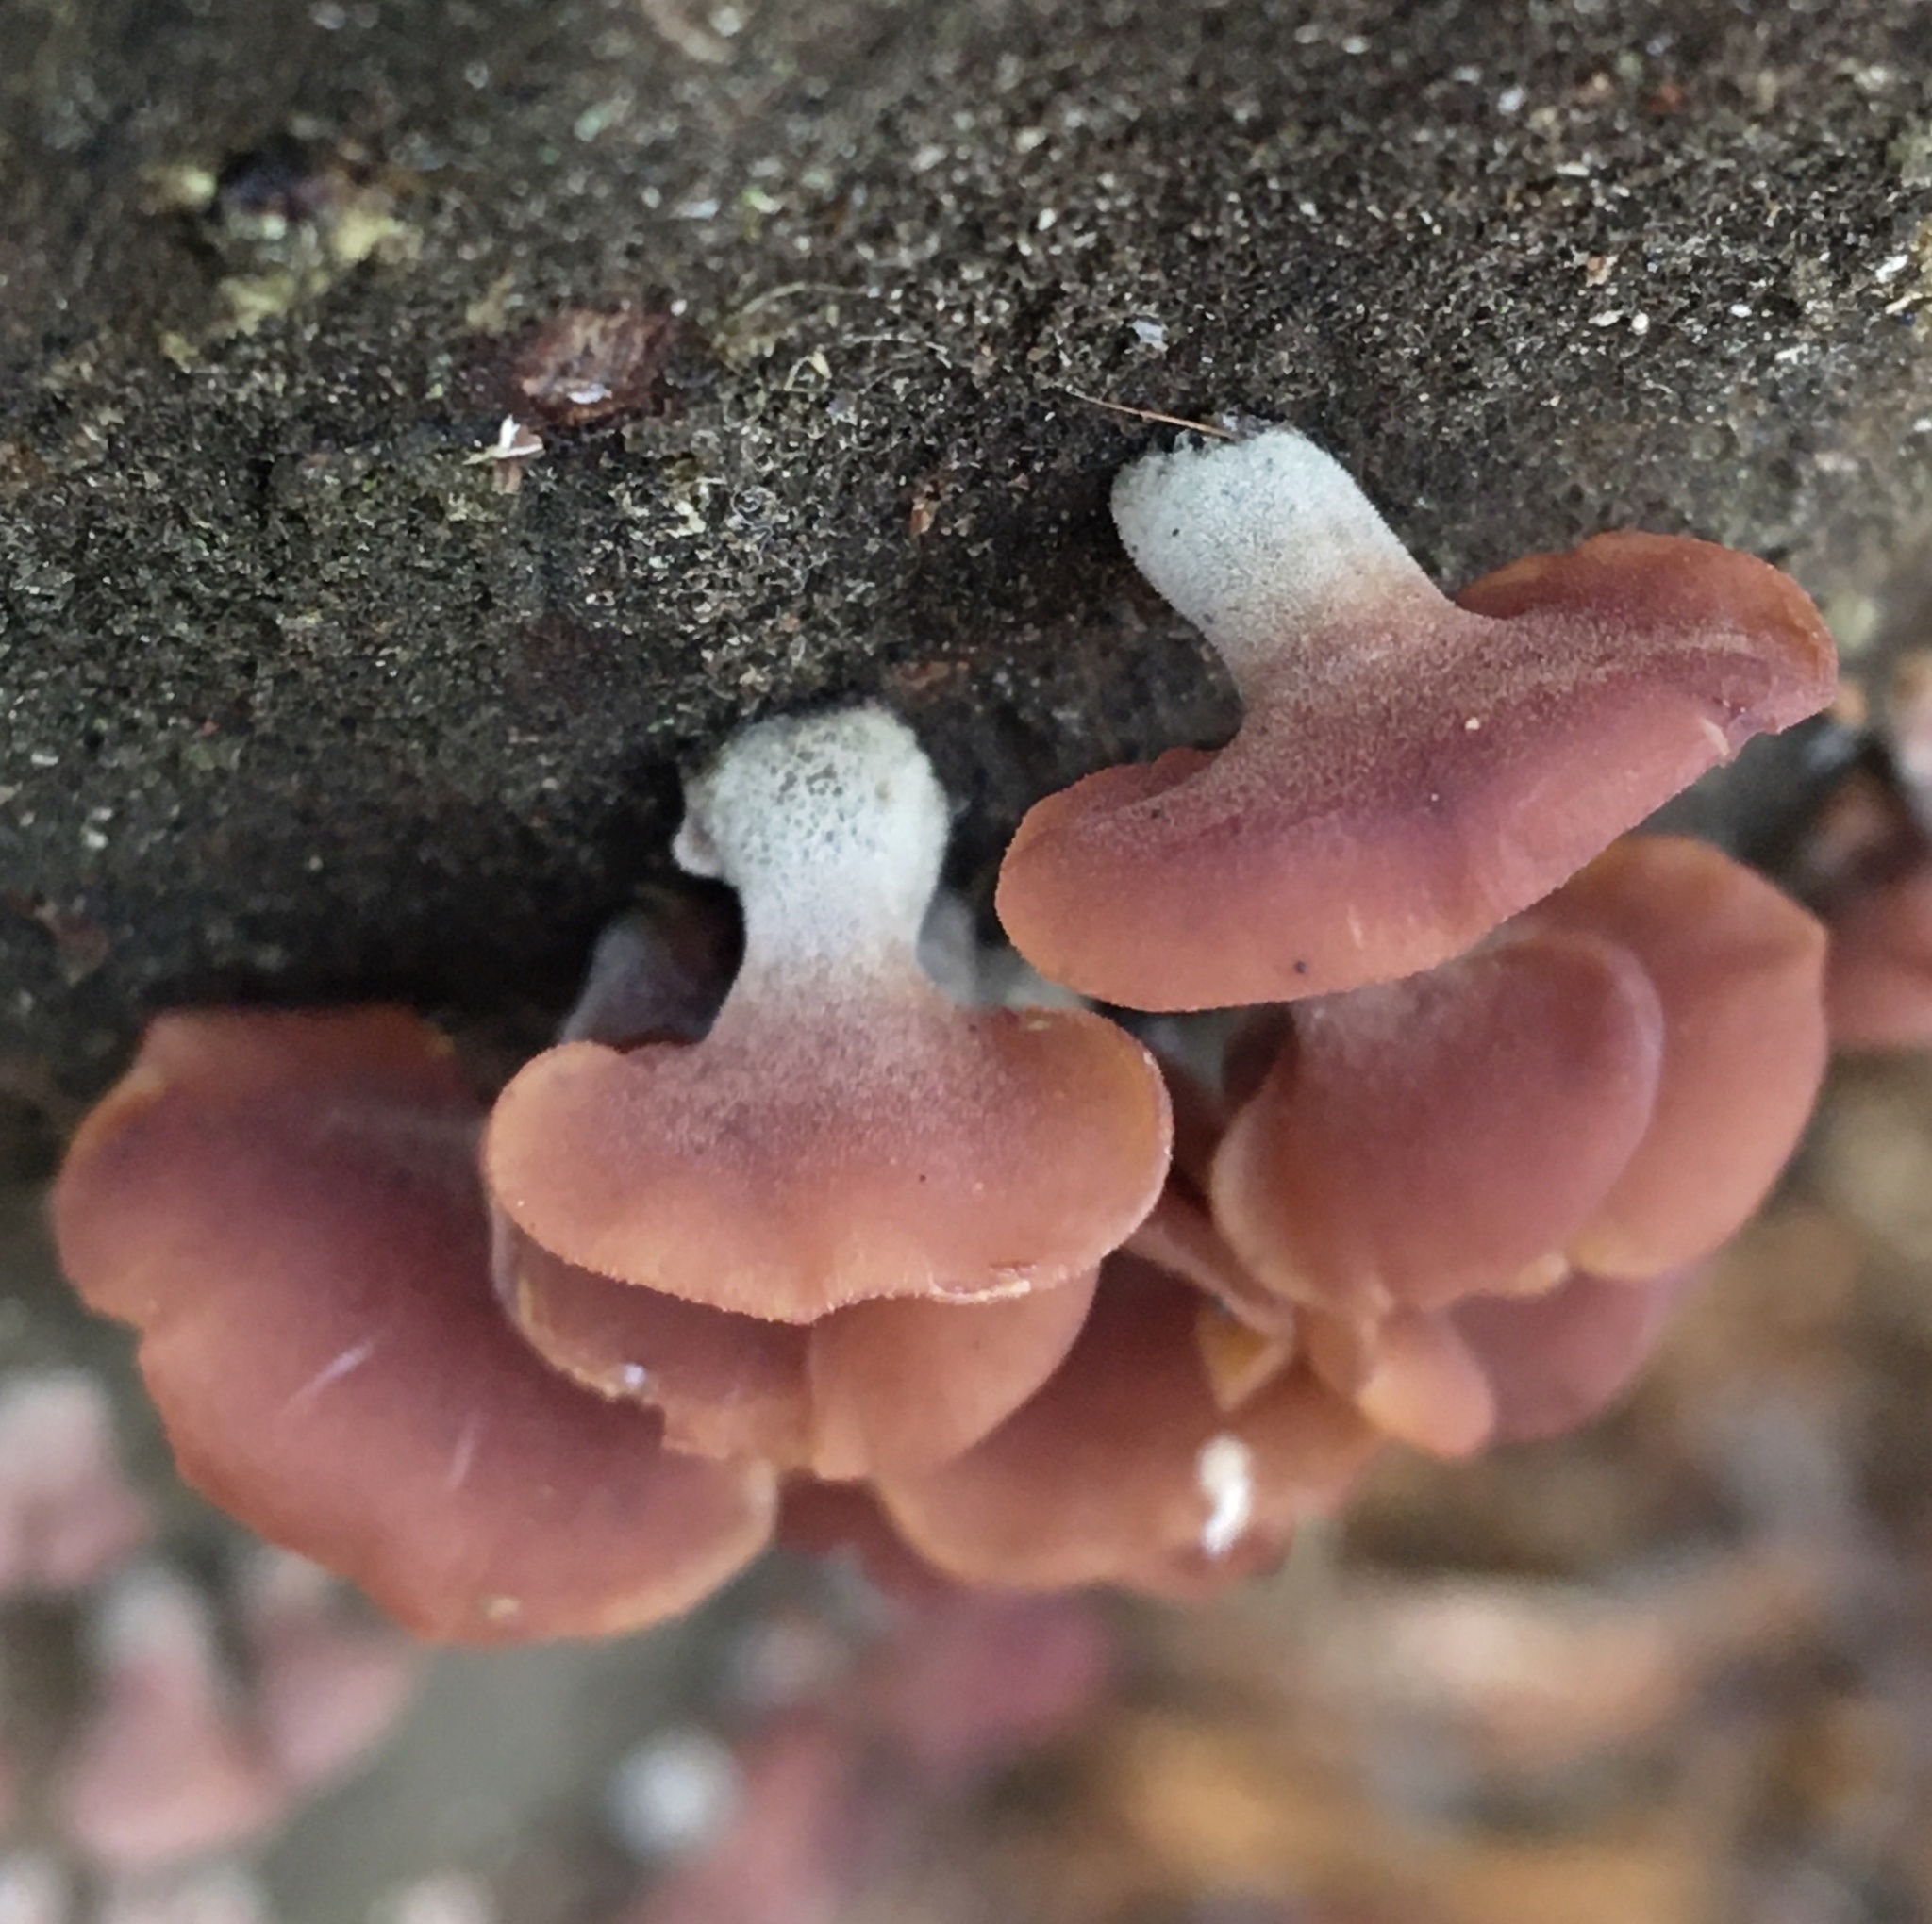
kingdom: Fungi
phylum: Basidiomycota
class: Dacrymycetes
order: Dacrymycetales
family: Dacrymycetaceae
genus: Dacryopinax
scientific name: Dacryopinax elegans
